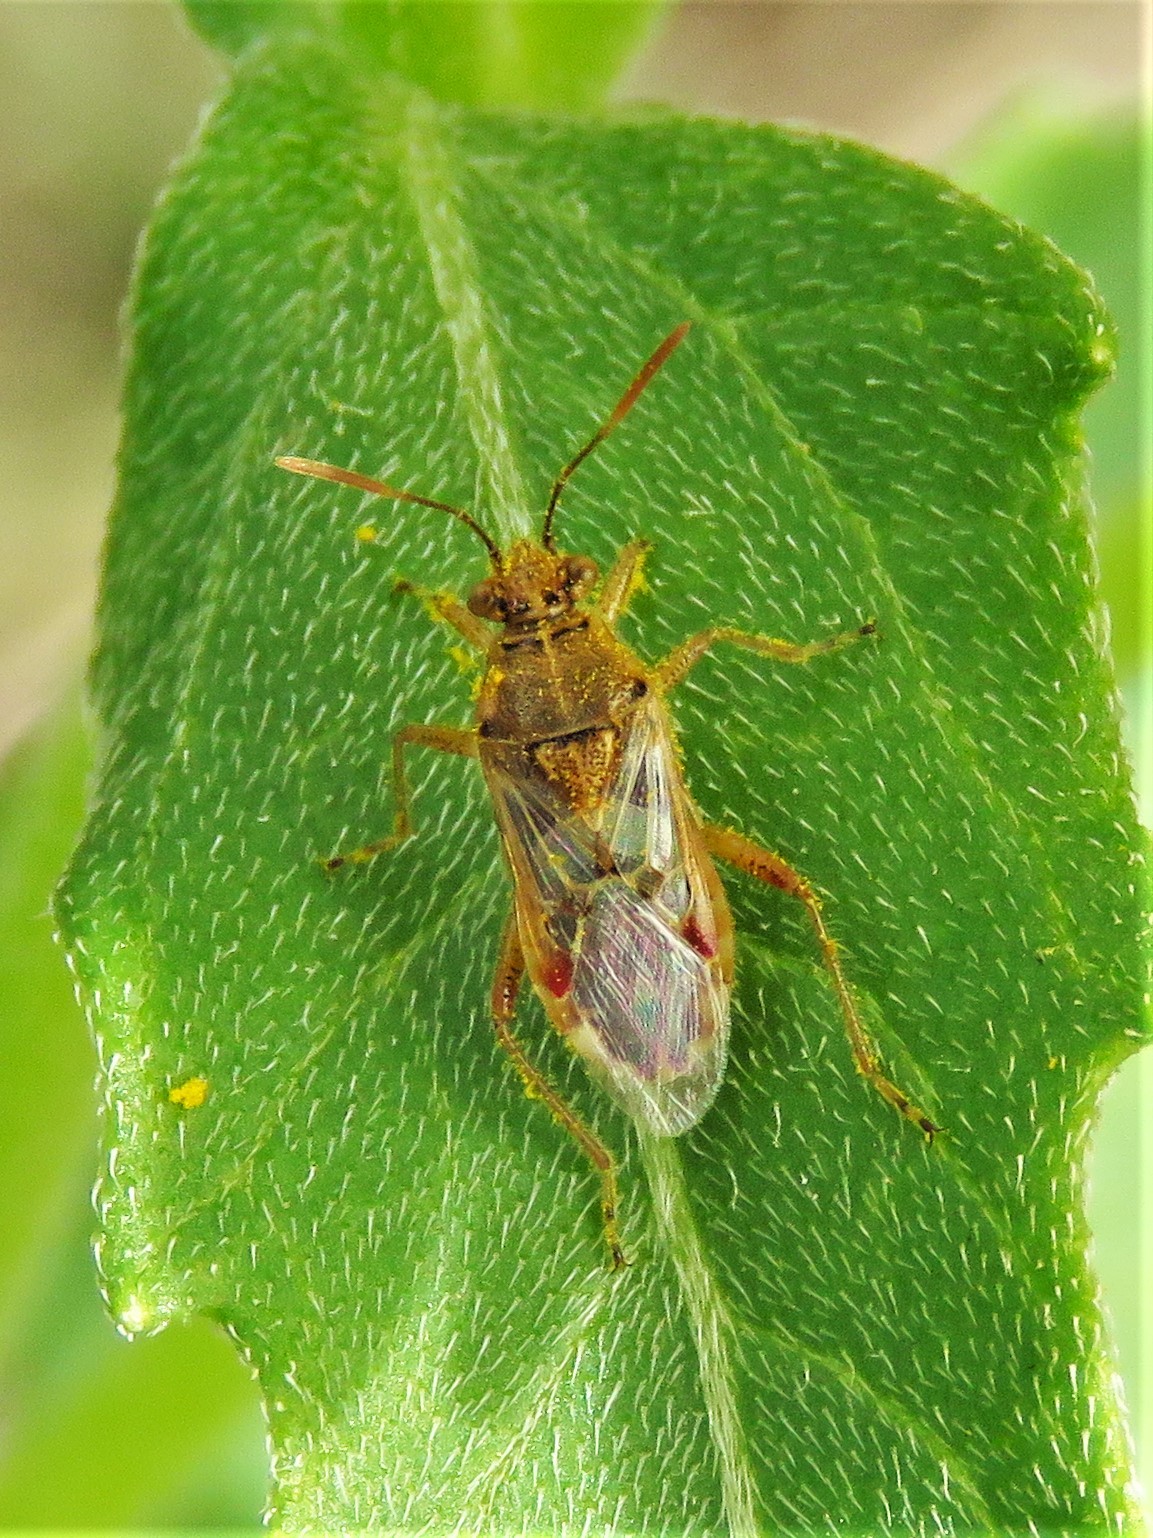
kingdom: Animalia
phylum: Arthropoda
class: Insecta
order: Hemiptera
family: Rhopalidae
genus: Liorhyssus
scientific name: Liorhyssus hyalinus
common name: Scentless plant bug
